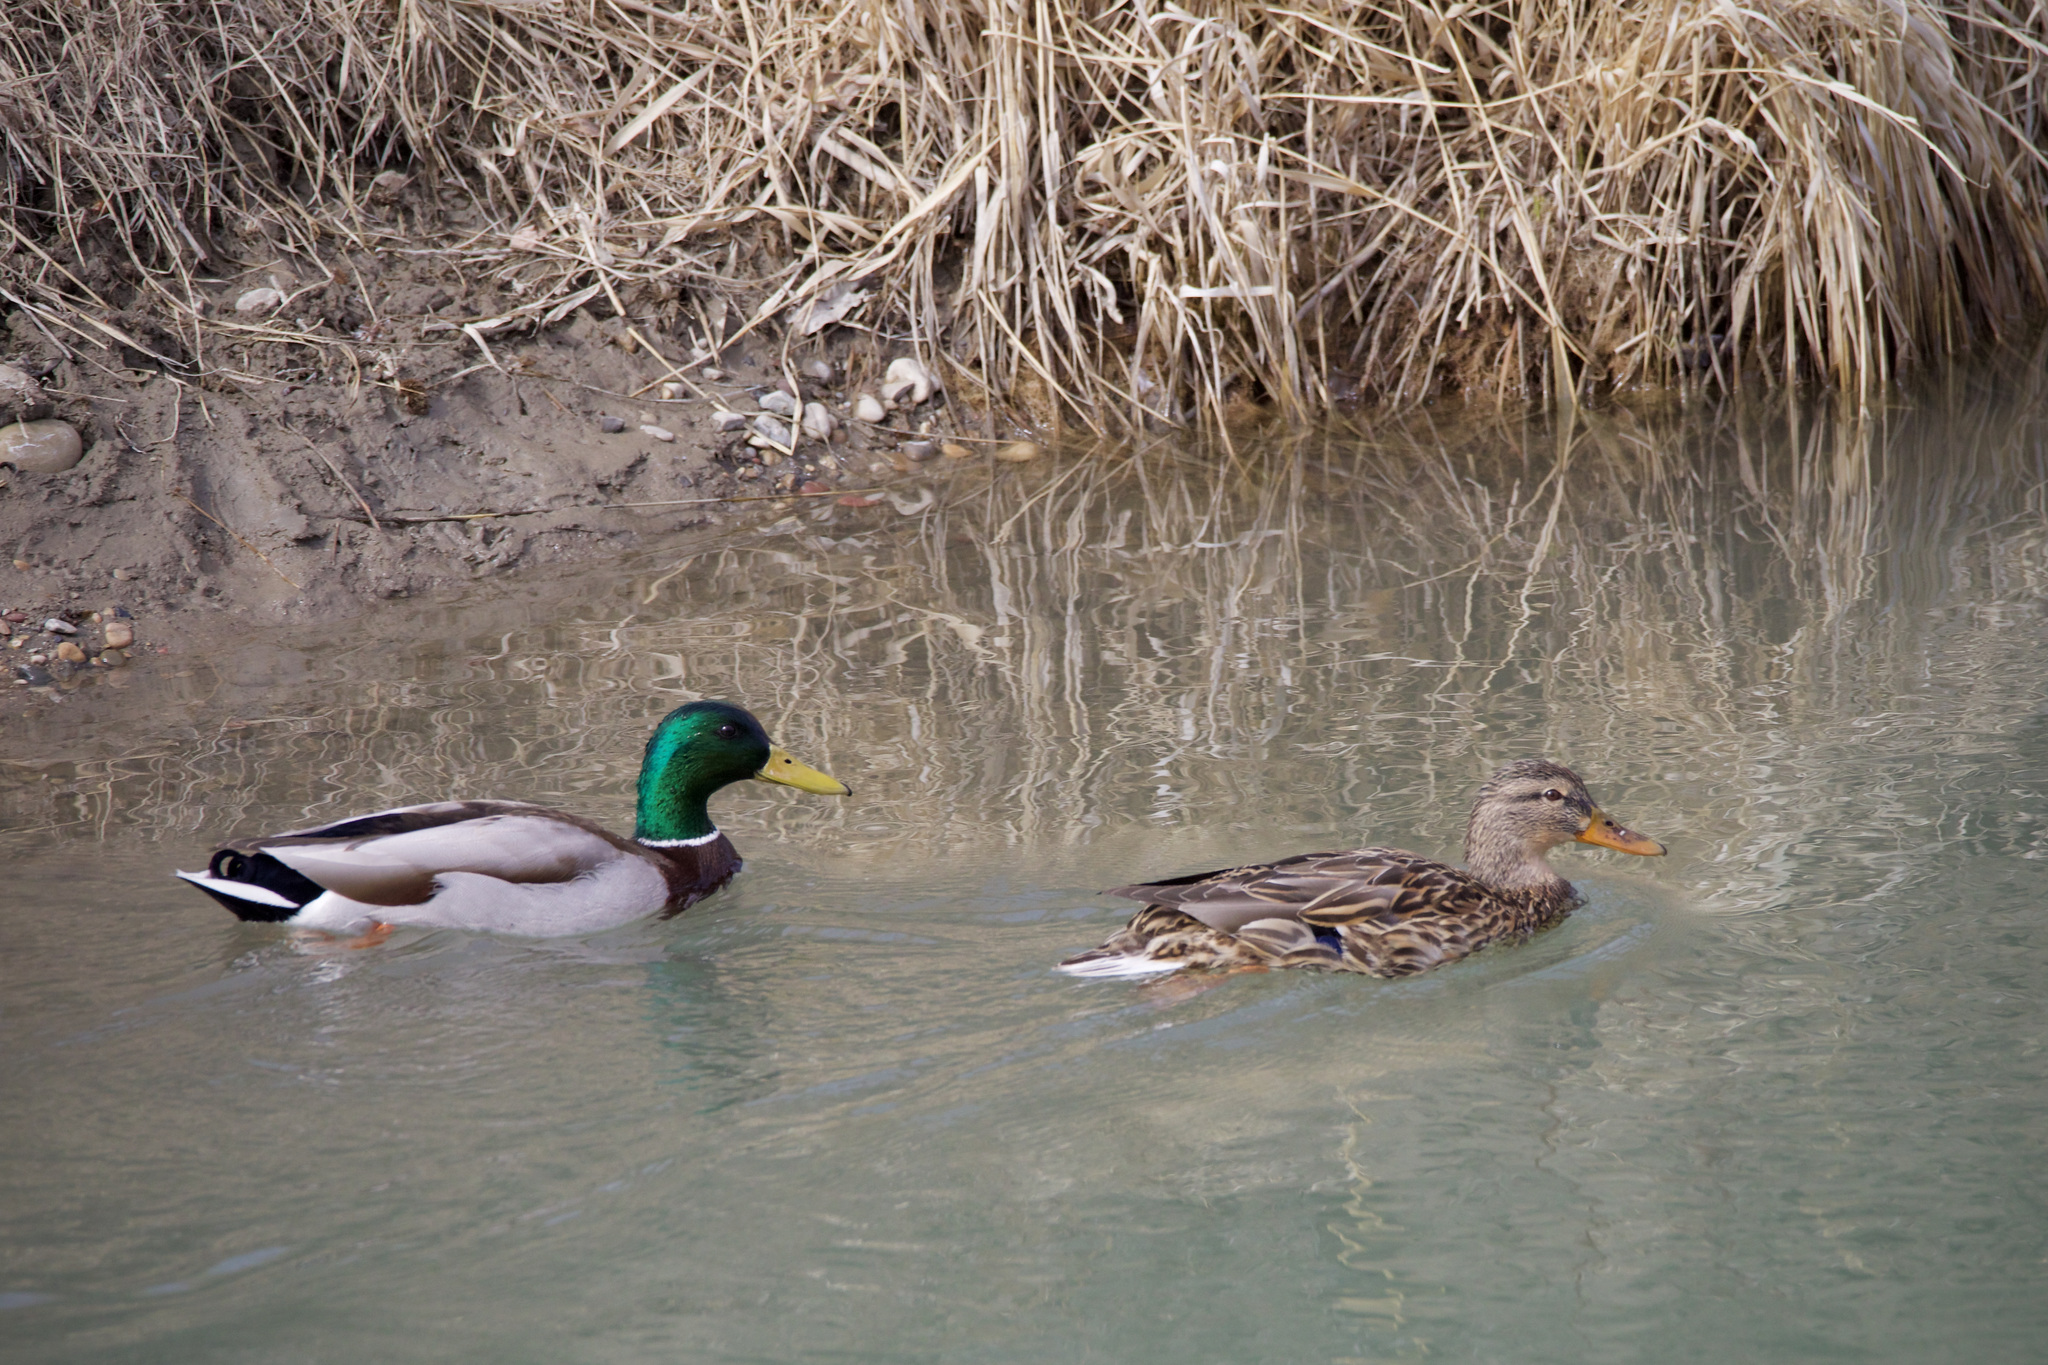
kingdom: Animalia
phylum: Chordata
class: Aves
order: Anseriformes
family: Anatidae
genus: Anas
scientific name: Anas platyrhynchos
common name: Mallard
